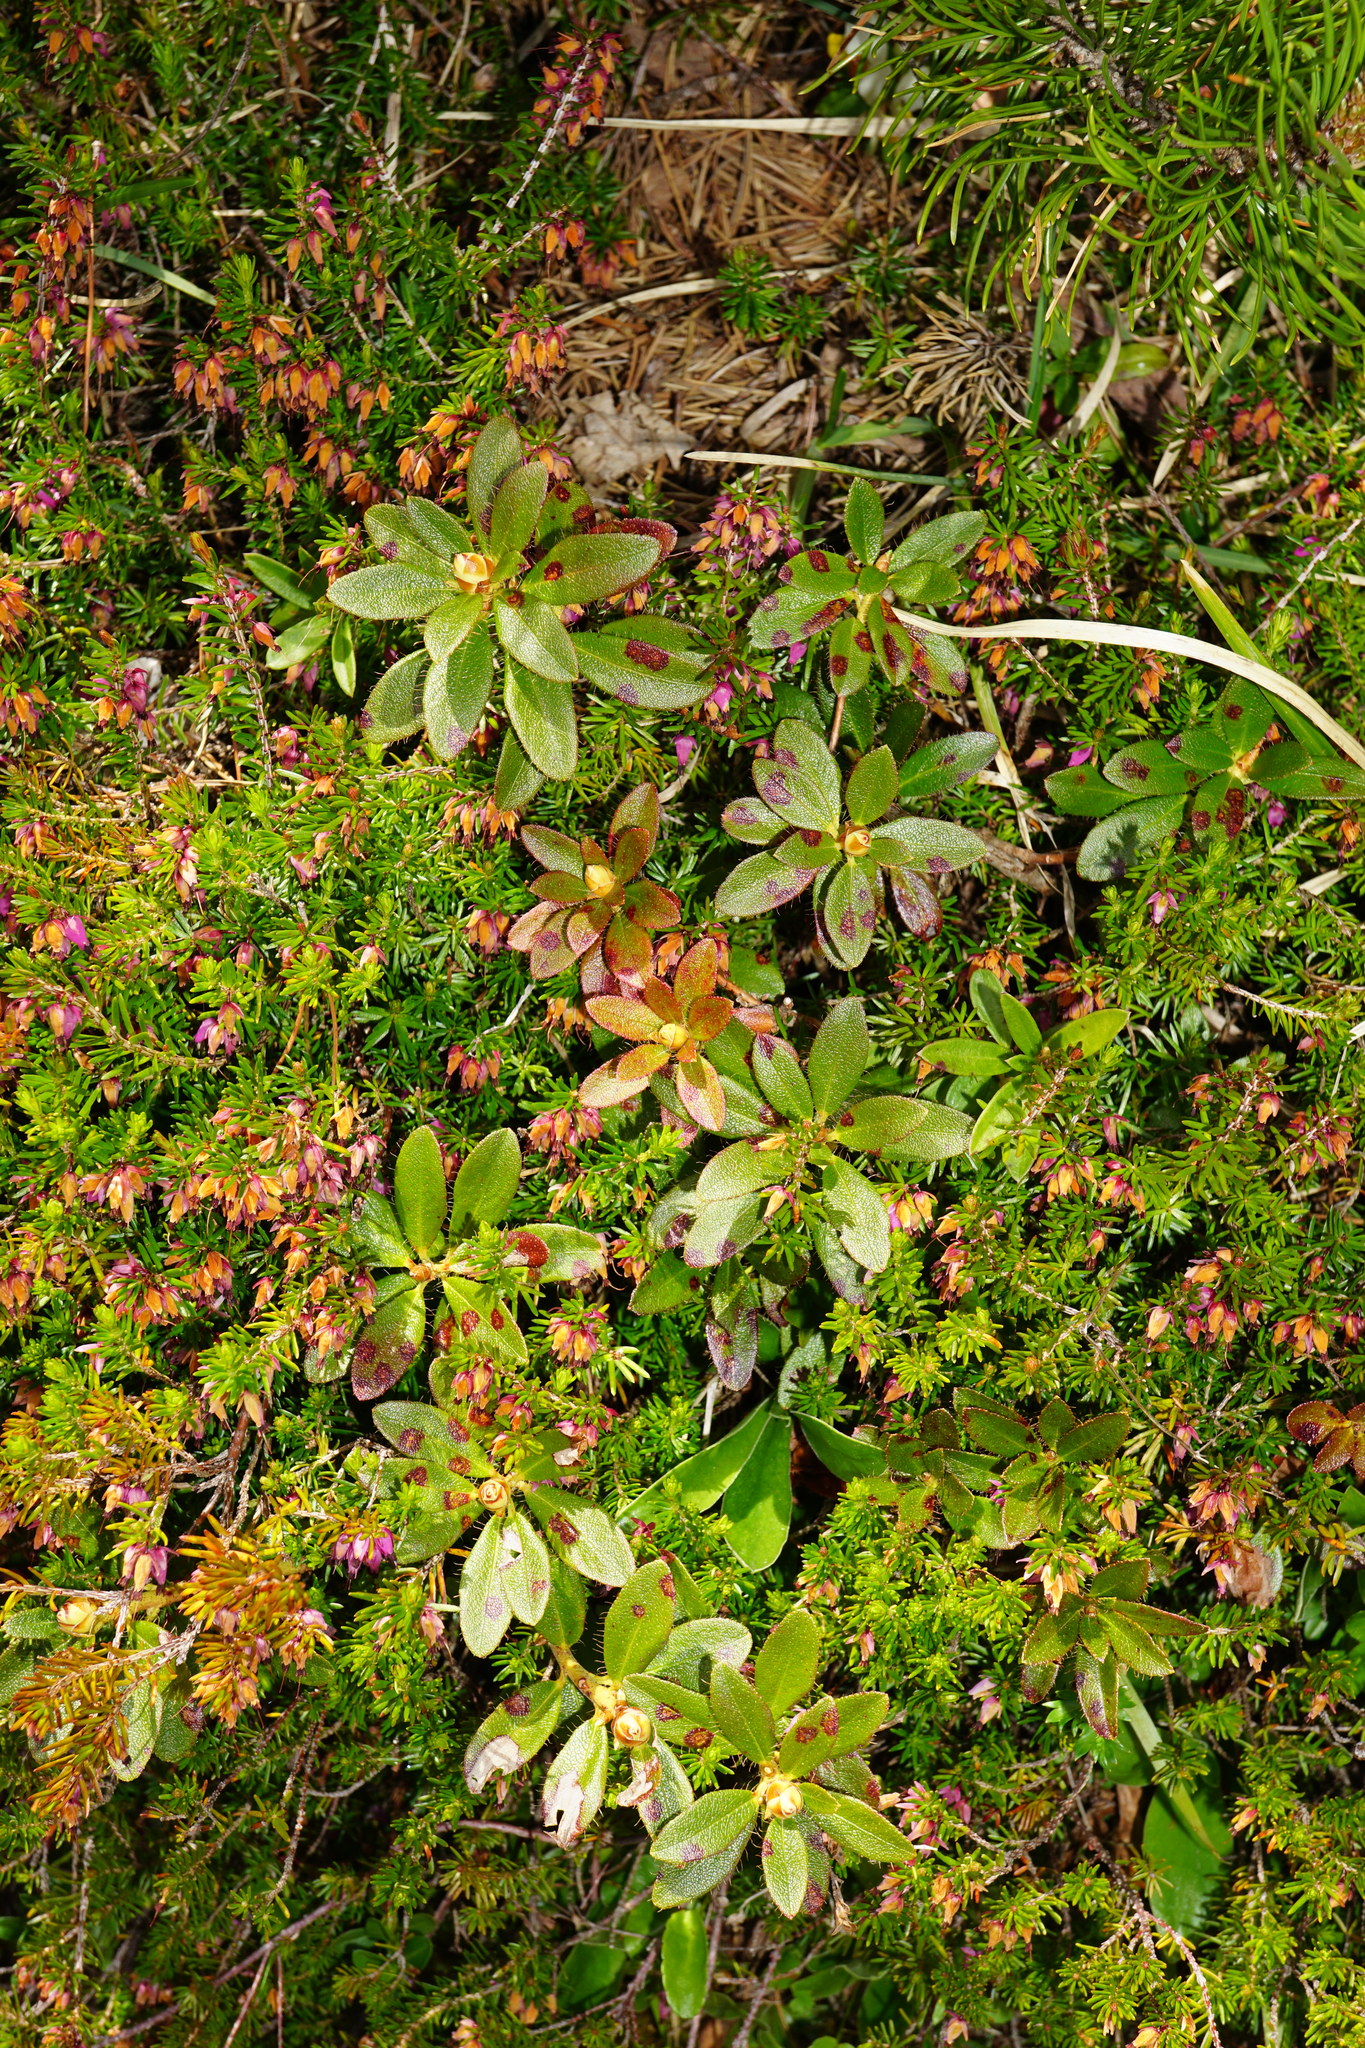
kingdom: Plantae
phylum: Tracheophyta
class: Magnoliopsida
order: Ericales
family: Ericaceae
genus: Rhododendron
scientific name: Rhododendron hirsutum
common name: Hairy alpenrose
